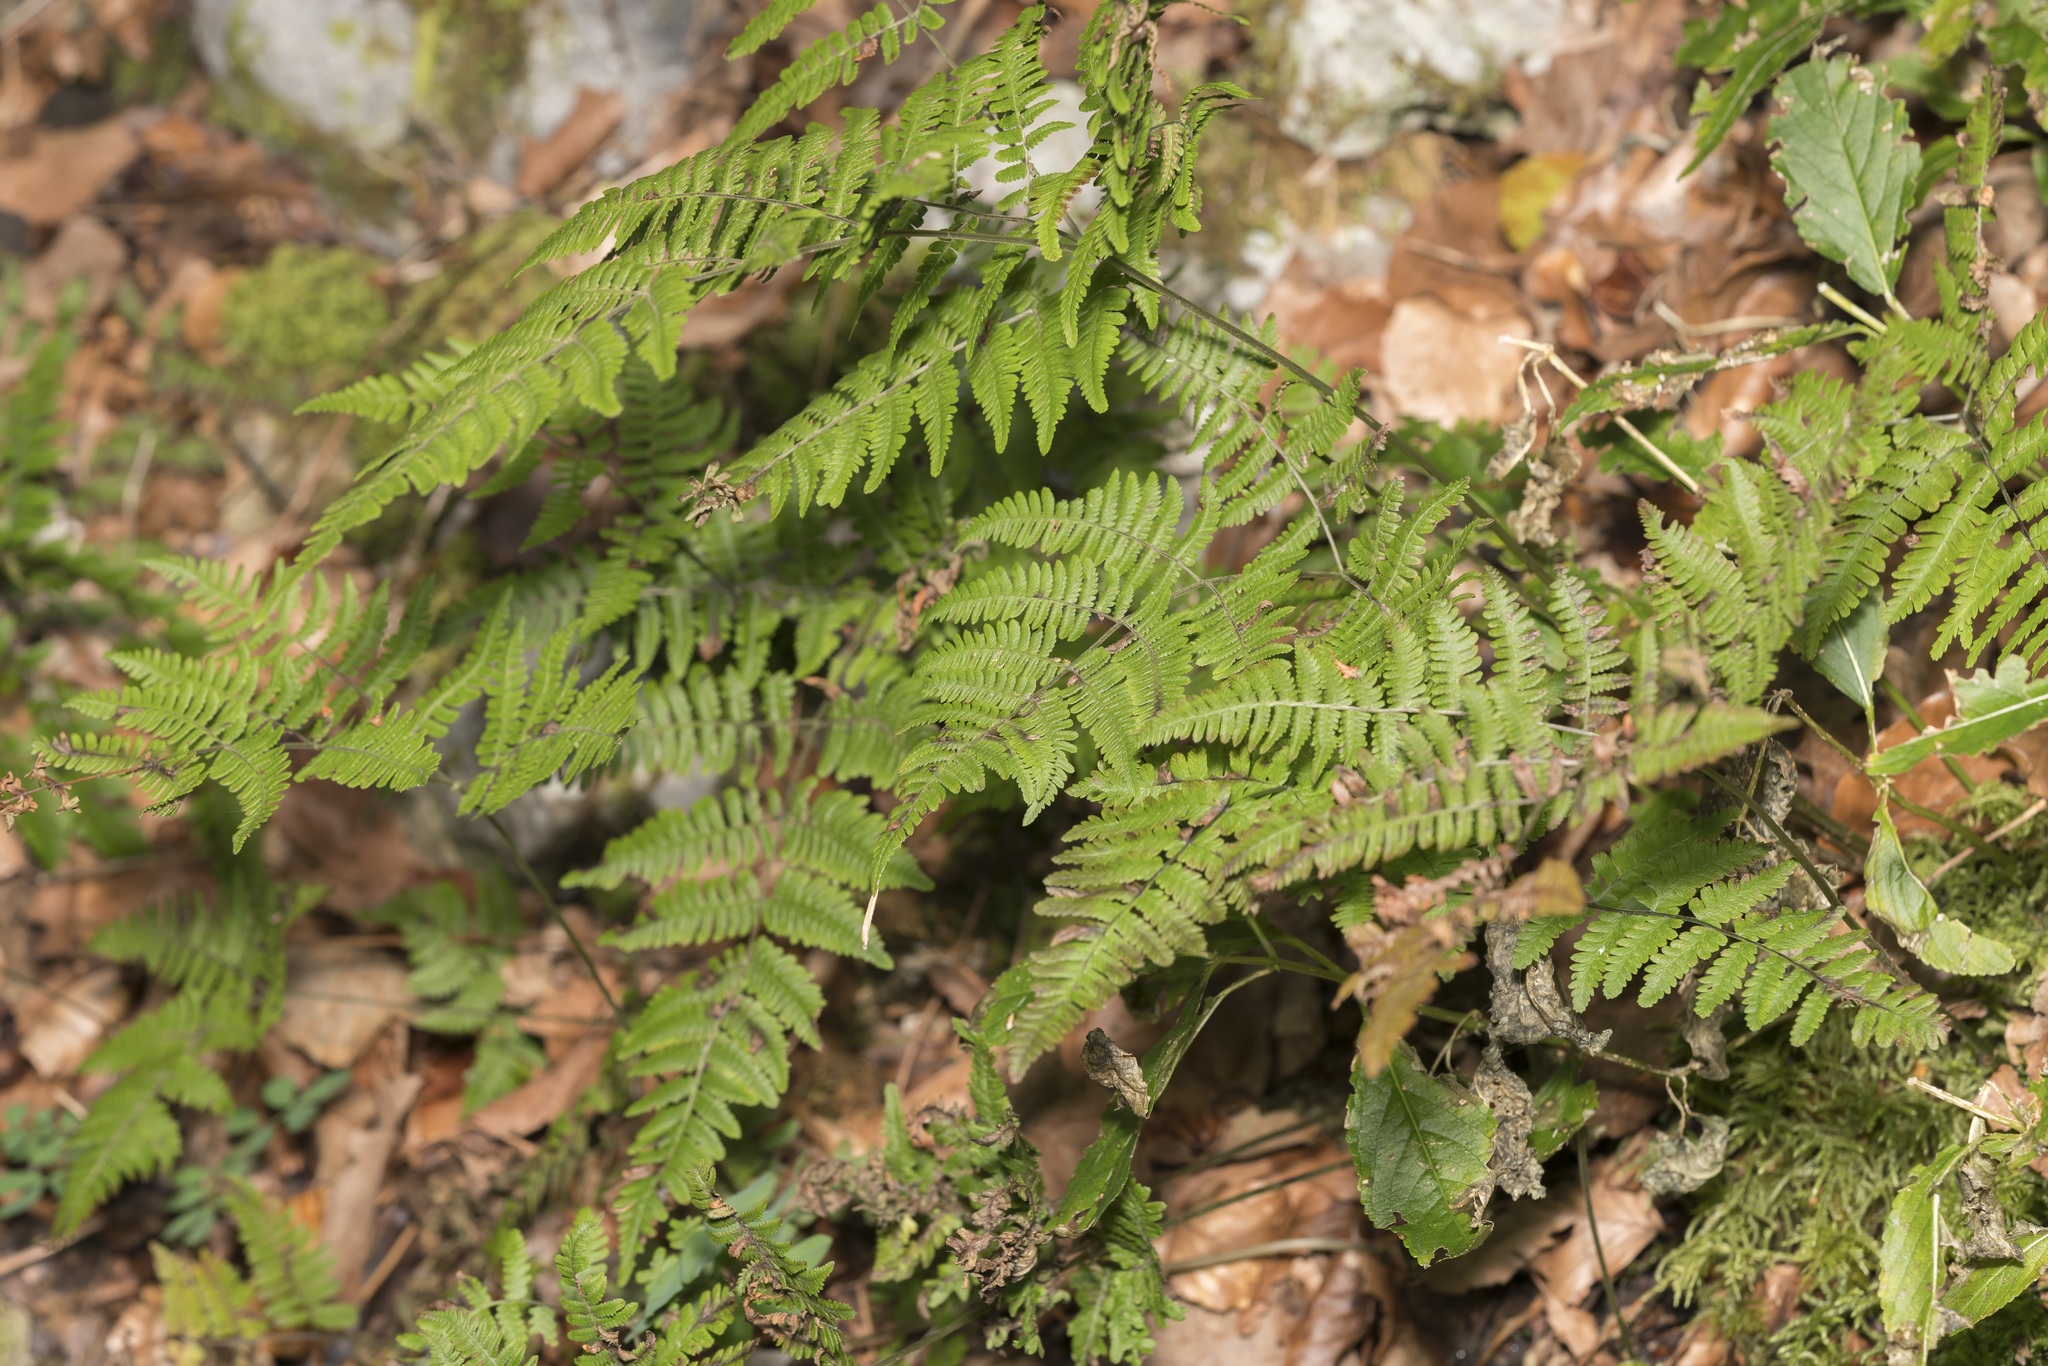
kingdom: Plantae
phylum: Tracheophyta
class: Polypodiopsida
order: Polypodiales
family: Cystopteridaceae
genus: Gymnocarpium
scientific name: Gymnocarpium robertianum
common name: Limestone fern
